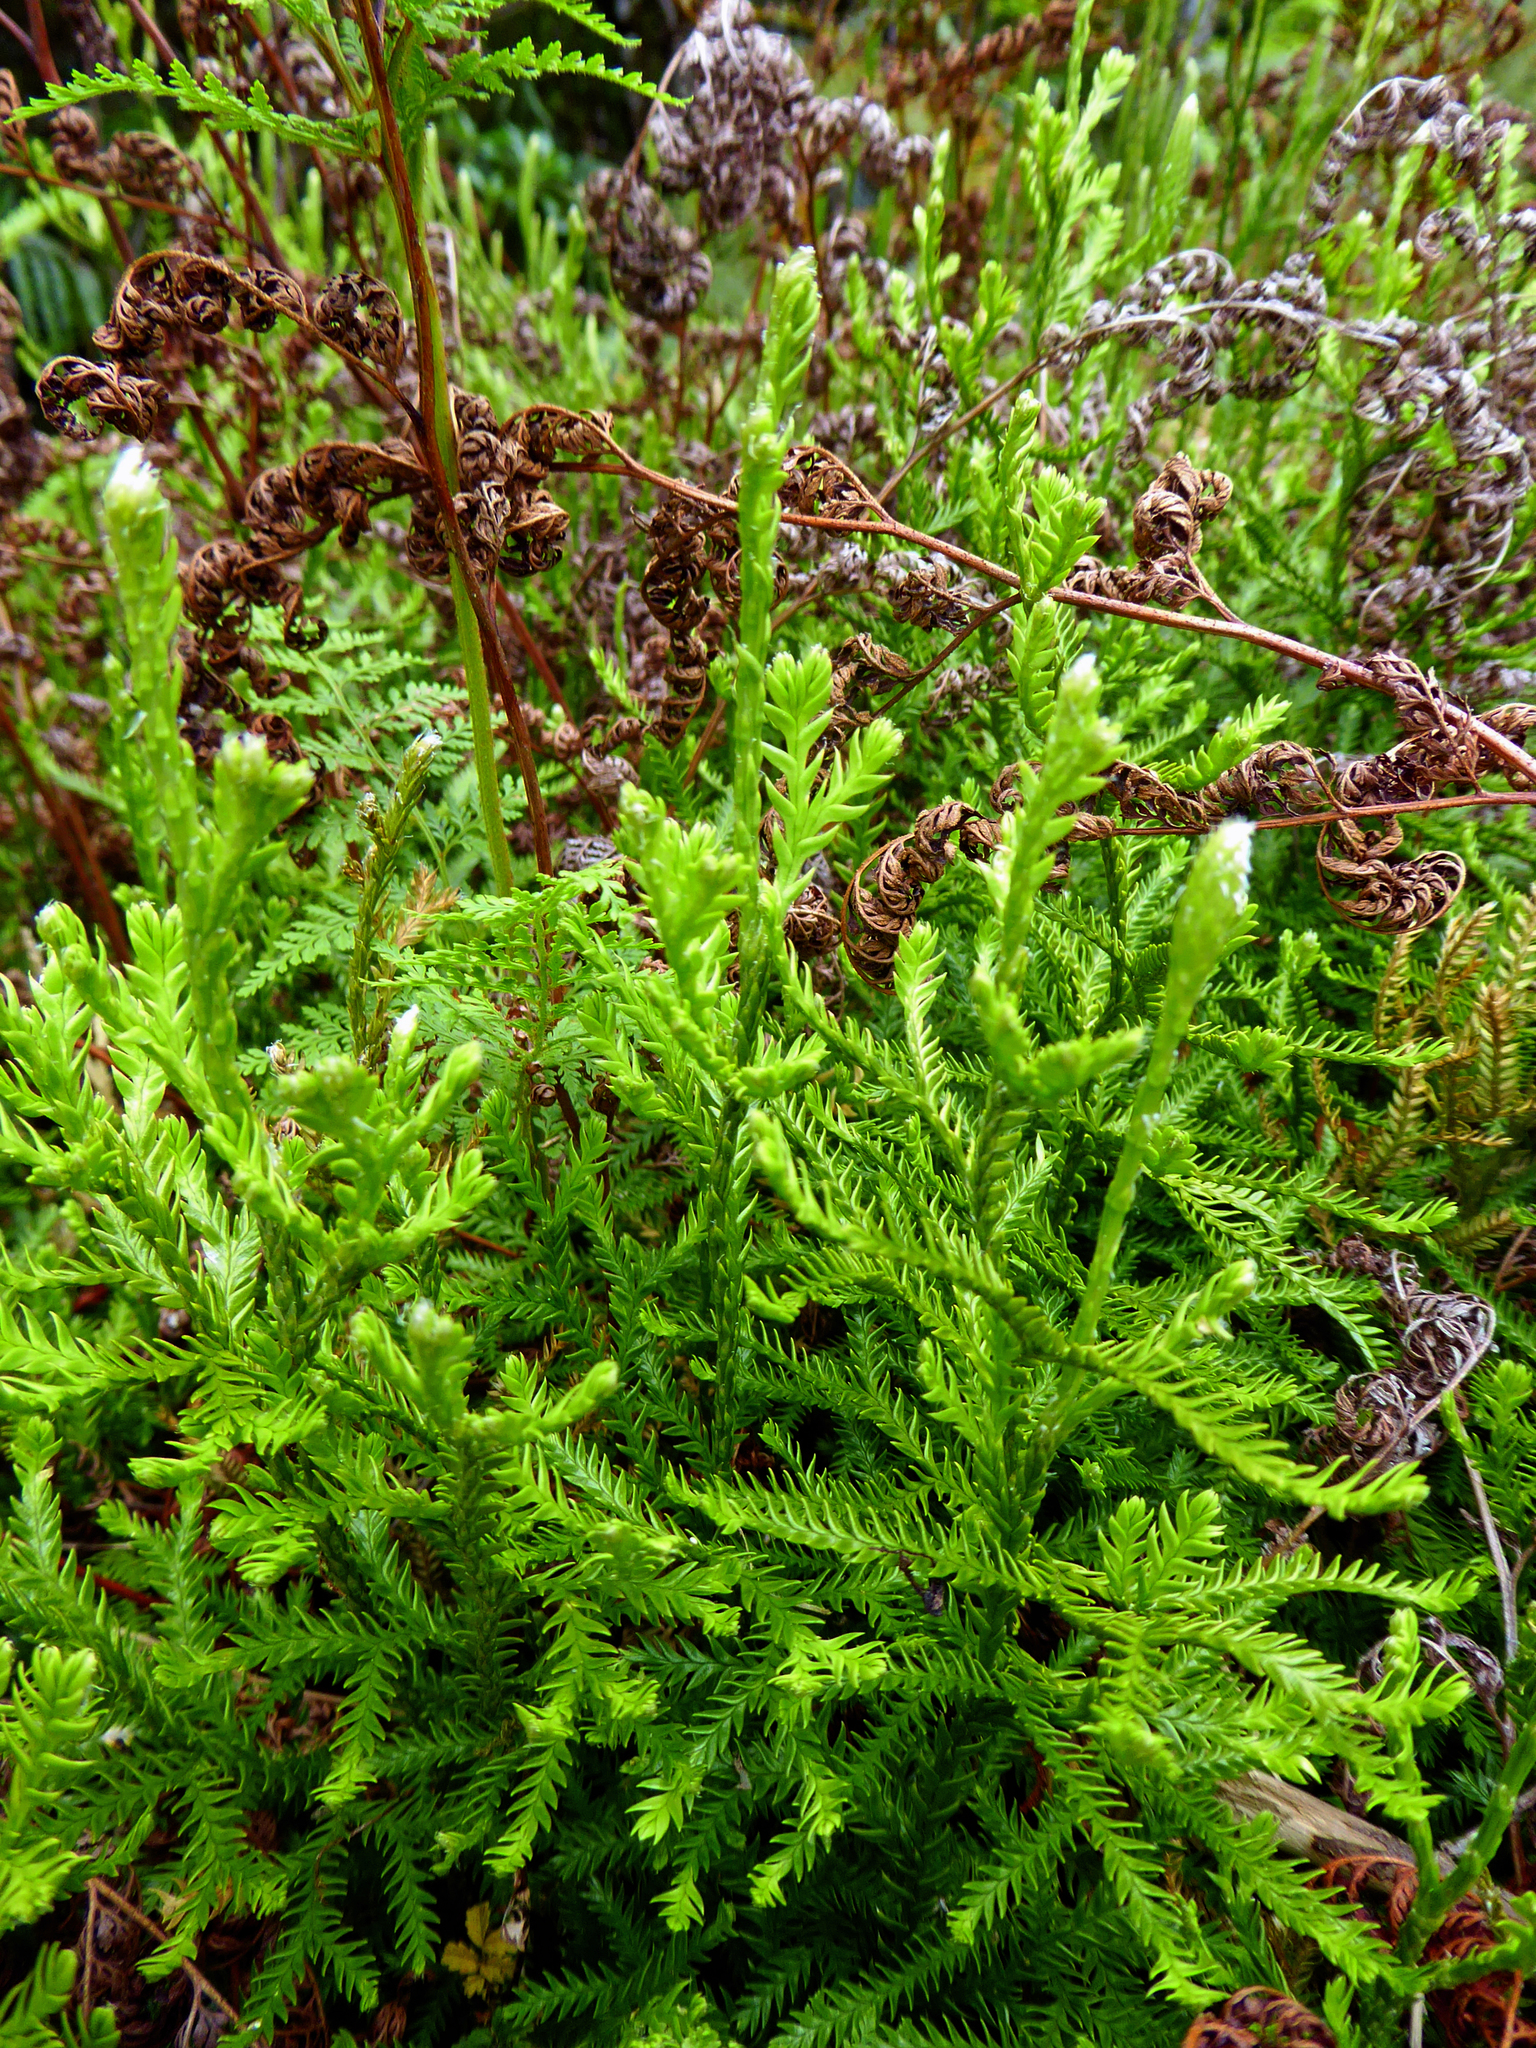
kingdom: Plantae
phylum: Tracheophyta
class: Lycopodiopsida
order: Lycopodiales
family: Lycopodiaceae
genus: Diphasium
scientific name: Diphasium scariosum
